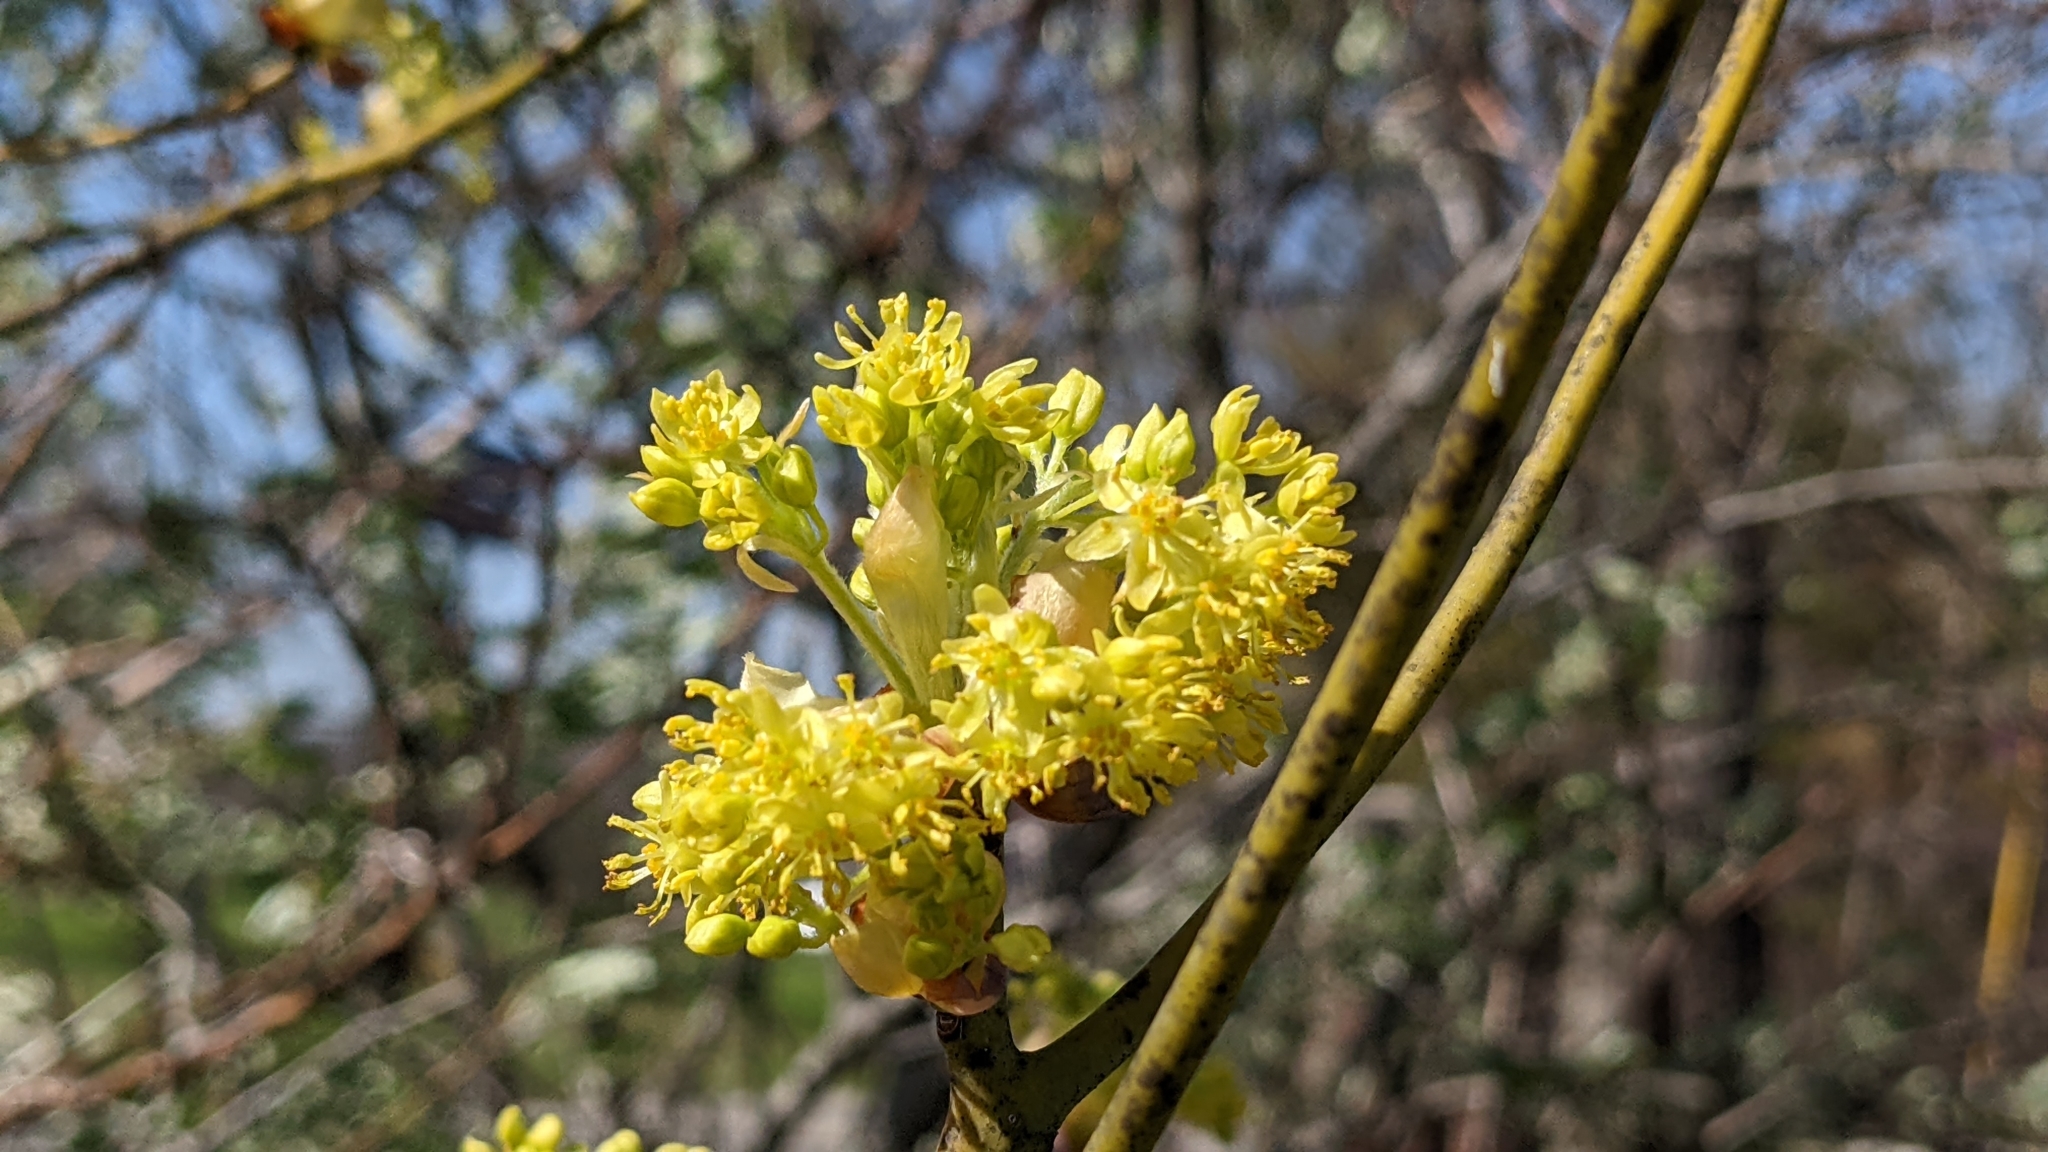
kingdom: Plantae
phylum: Tracheophyta
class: Magnoliopsida
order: Laurales
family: Lauraceae
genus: Sassafras
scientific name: Sassafras albidum
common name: Sassafras
